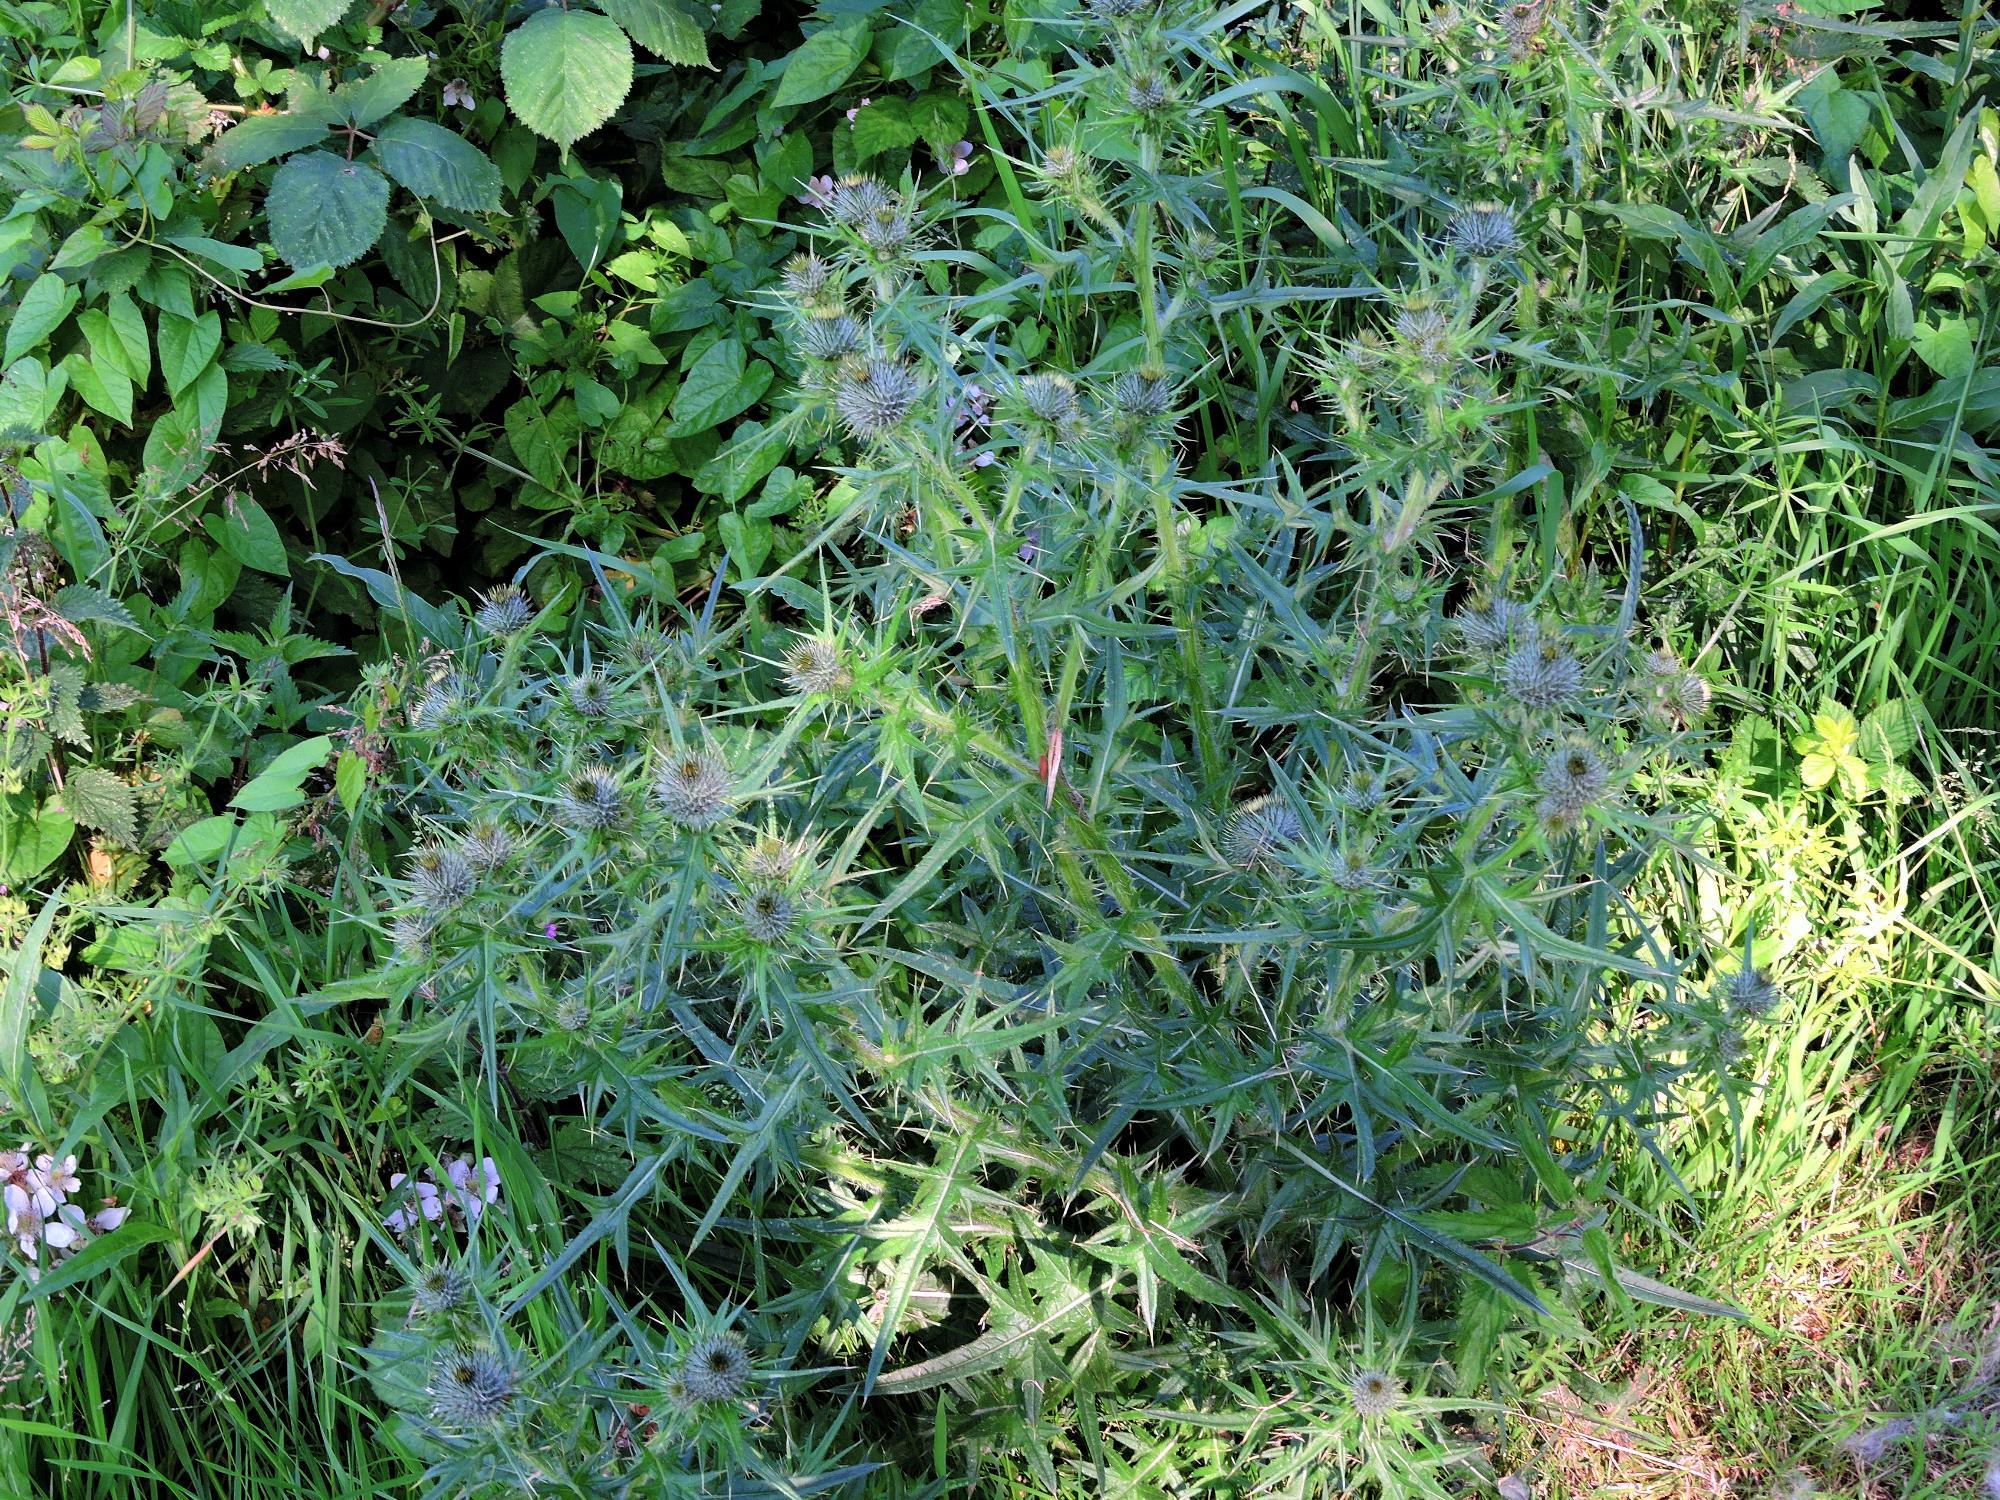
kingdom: Plantae
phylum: Tracheophyta
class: Magnoliopsida
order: Asterales
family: Asteraceae
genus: Cirsium
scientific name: Cirsium vulgare
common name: Bull thistle
